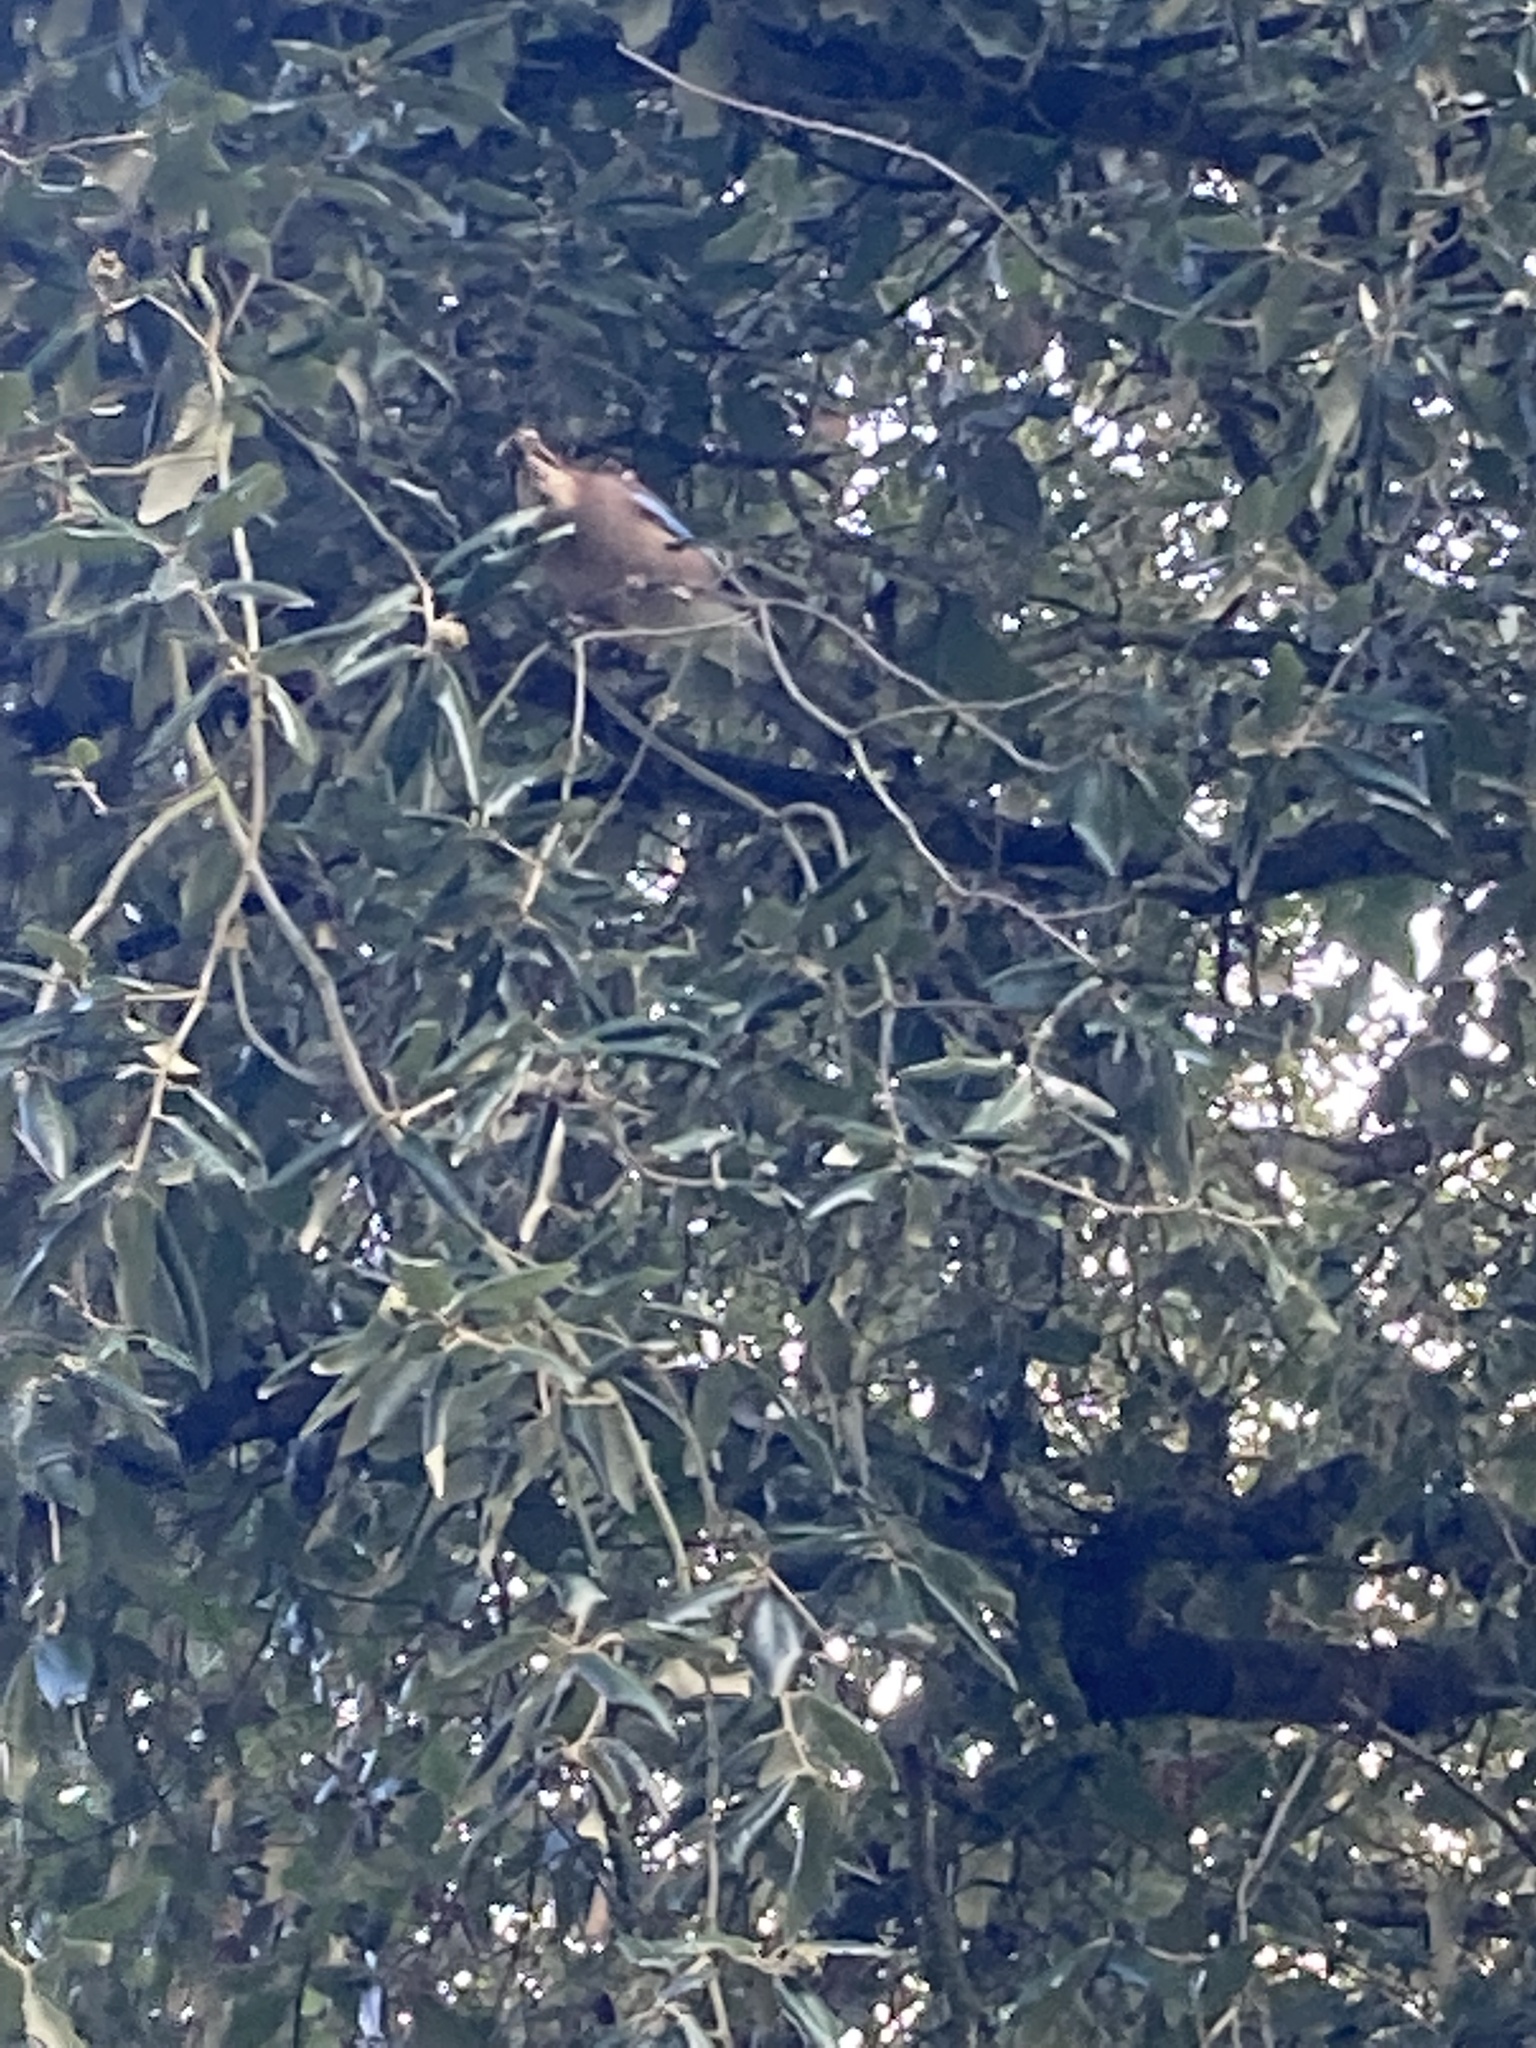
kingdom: Animalia
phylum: Chordata
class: Aves
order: Passeriformes
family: Corvidae
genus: Garrulus
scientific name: Garrulus glandarius
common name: Eurasian jay
